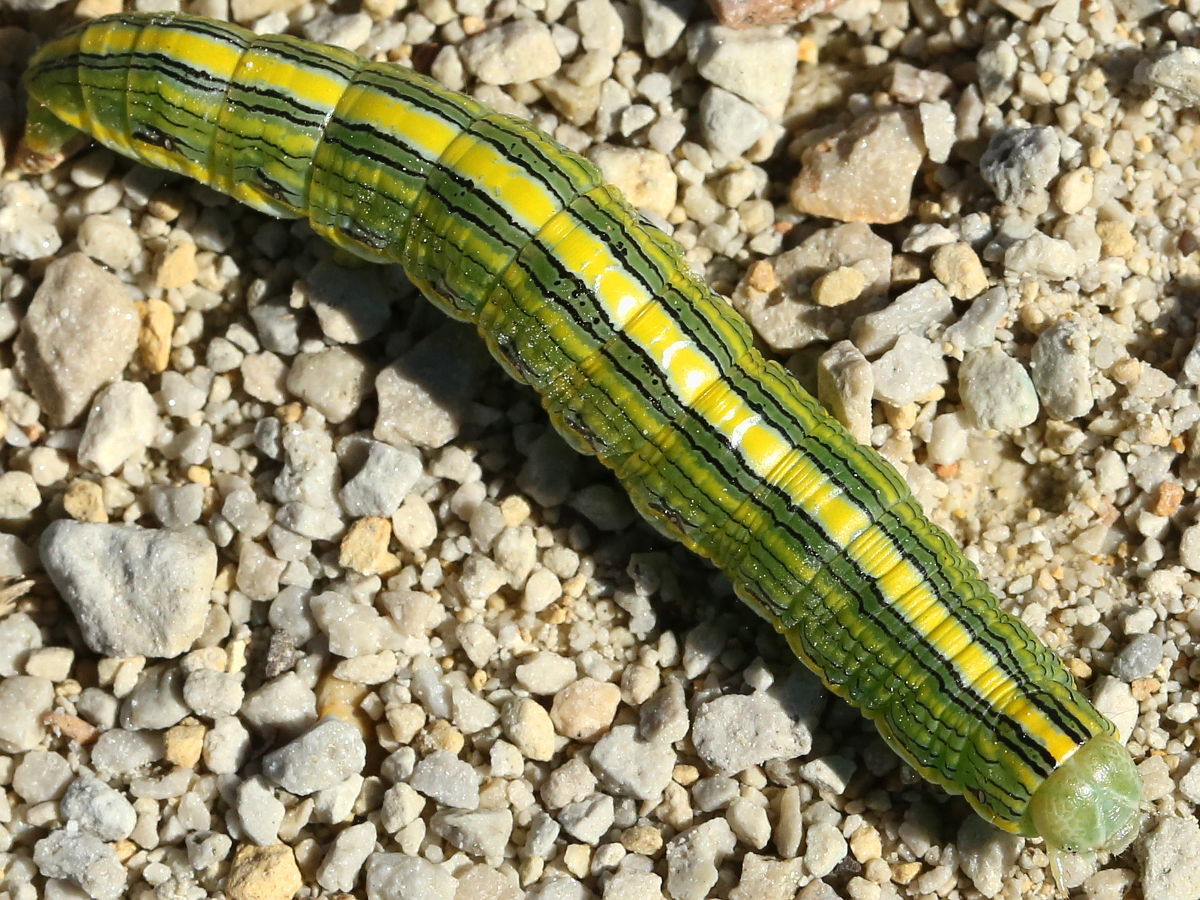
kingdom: Animalia
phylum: Arthropoda
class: Insecta
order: Lepidoptera
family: Noctuidae
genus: Cucullia
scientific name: Cucullia asteroides
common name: Asteroid moth
